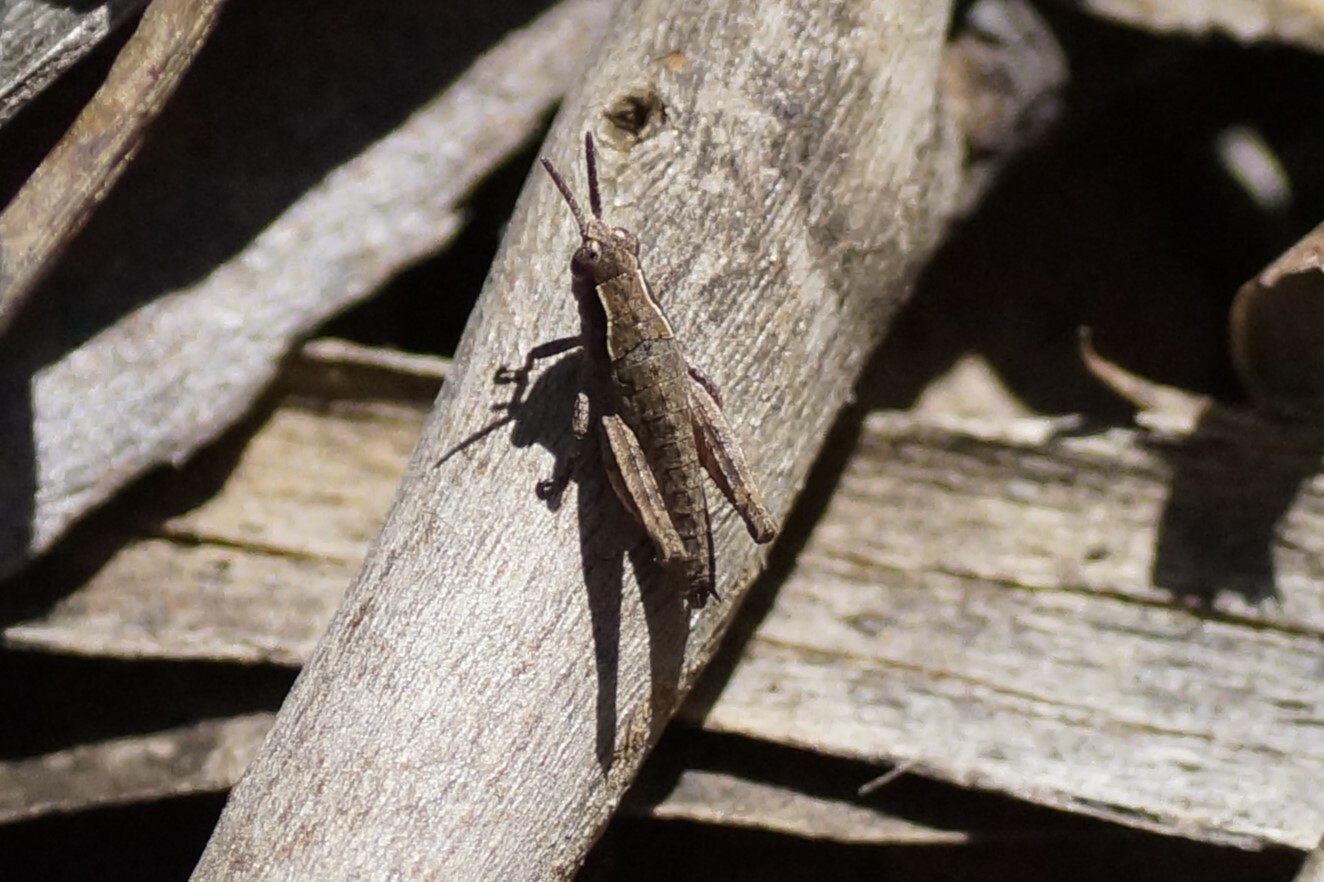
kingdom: Animalia
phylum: Arthropoda
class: Insecta
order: Orthoptera
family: Acrididae
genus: Tasmaniacris
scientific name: Tasmaniacris tasmaniensis
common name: Tasmanian grasshopper
